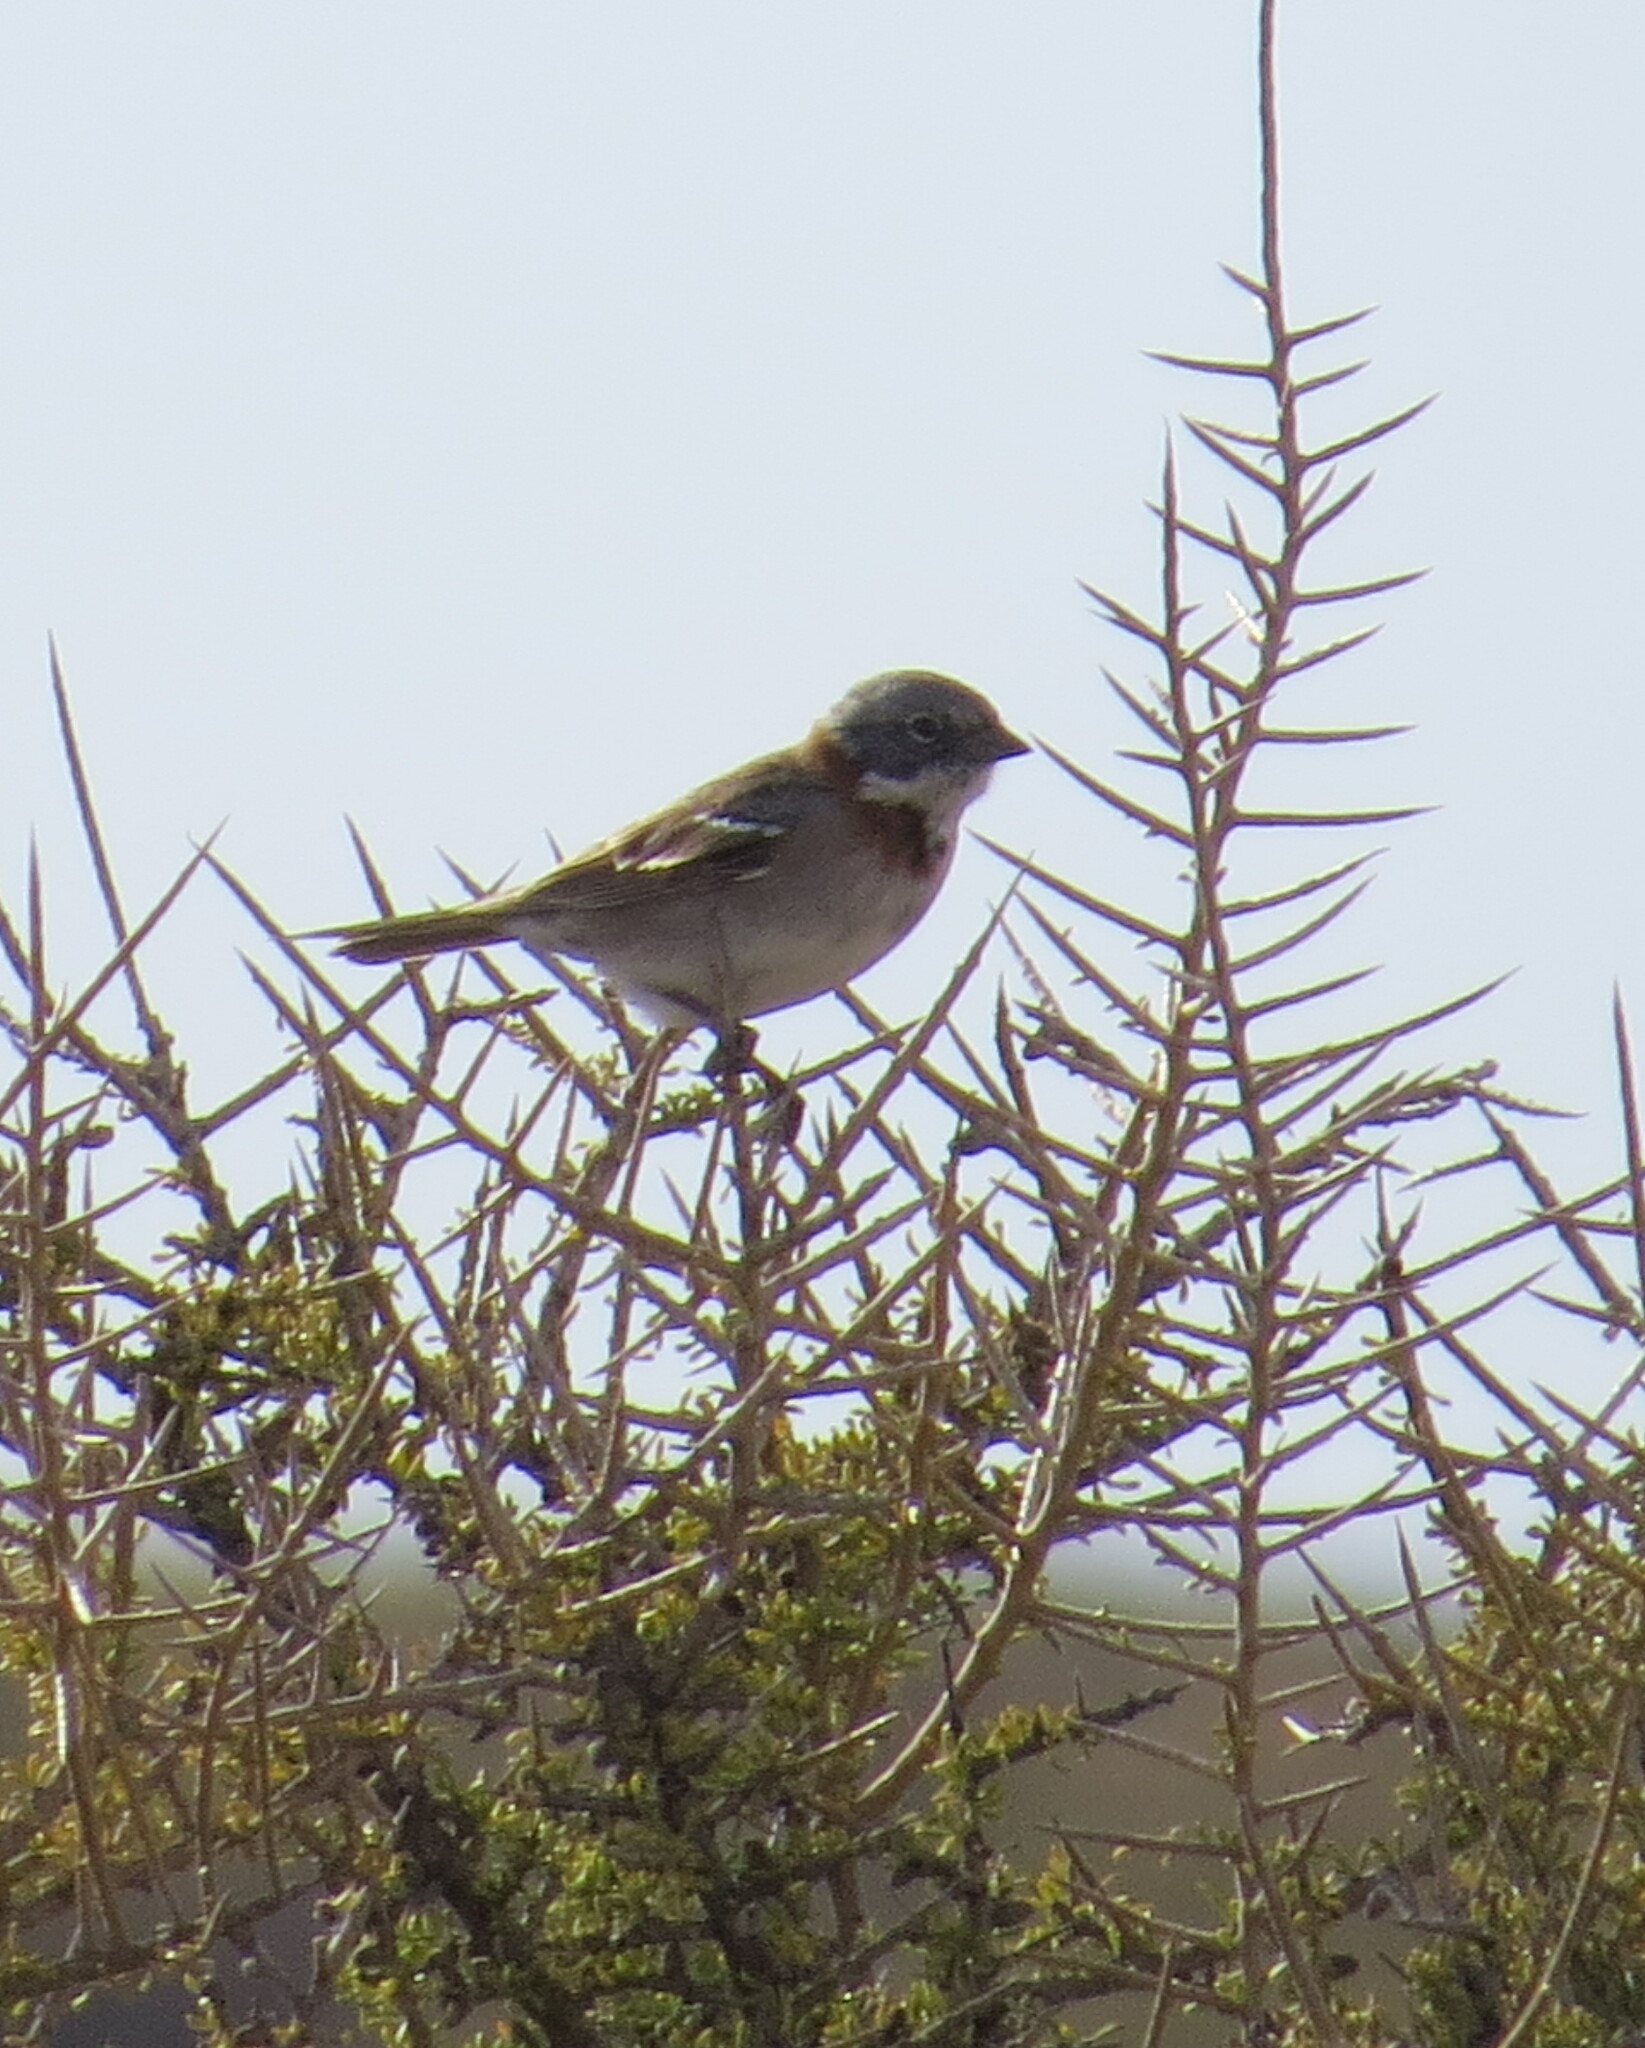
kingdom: Animalia
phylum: Chordata
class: Aves
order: Passeriformes
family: Passerellidae
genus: Zonotrichia
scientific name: Zonotrichia capensis
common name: Rufous-collared sparrow
